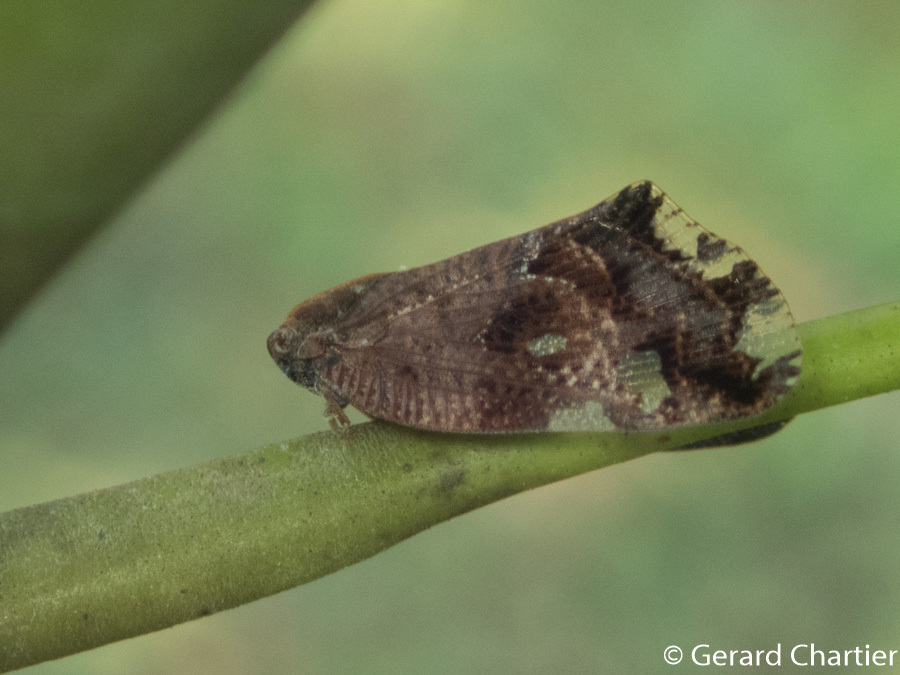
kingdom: Animalia
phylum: Arthropoda
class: Insecta
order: Hemiptera
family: Ricaniidae
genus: Ricania
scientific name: Ricania speculum
